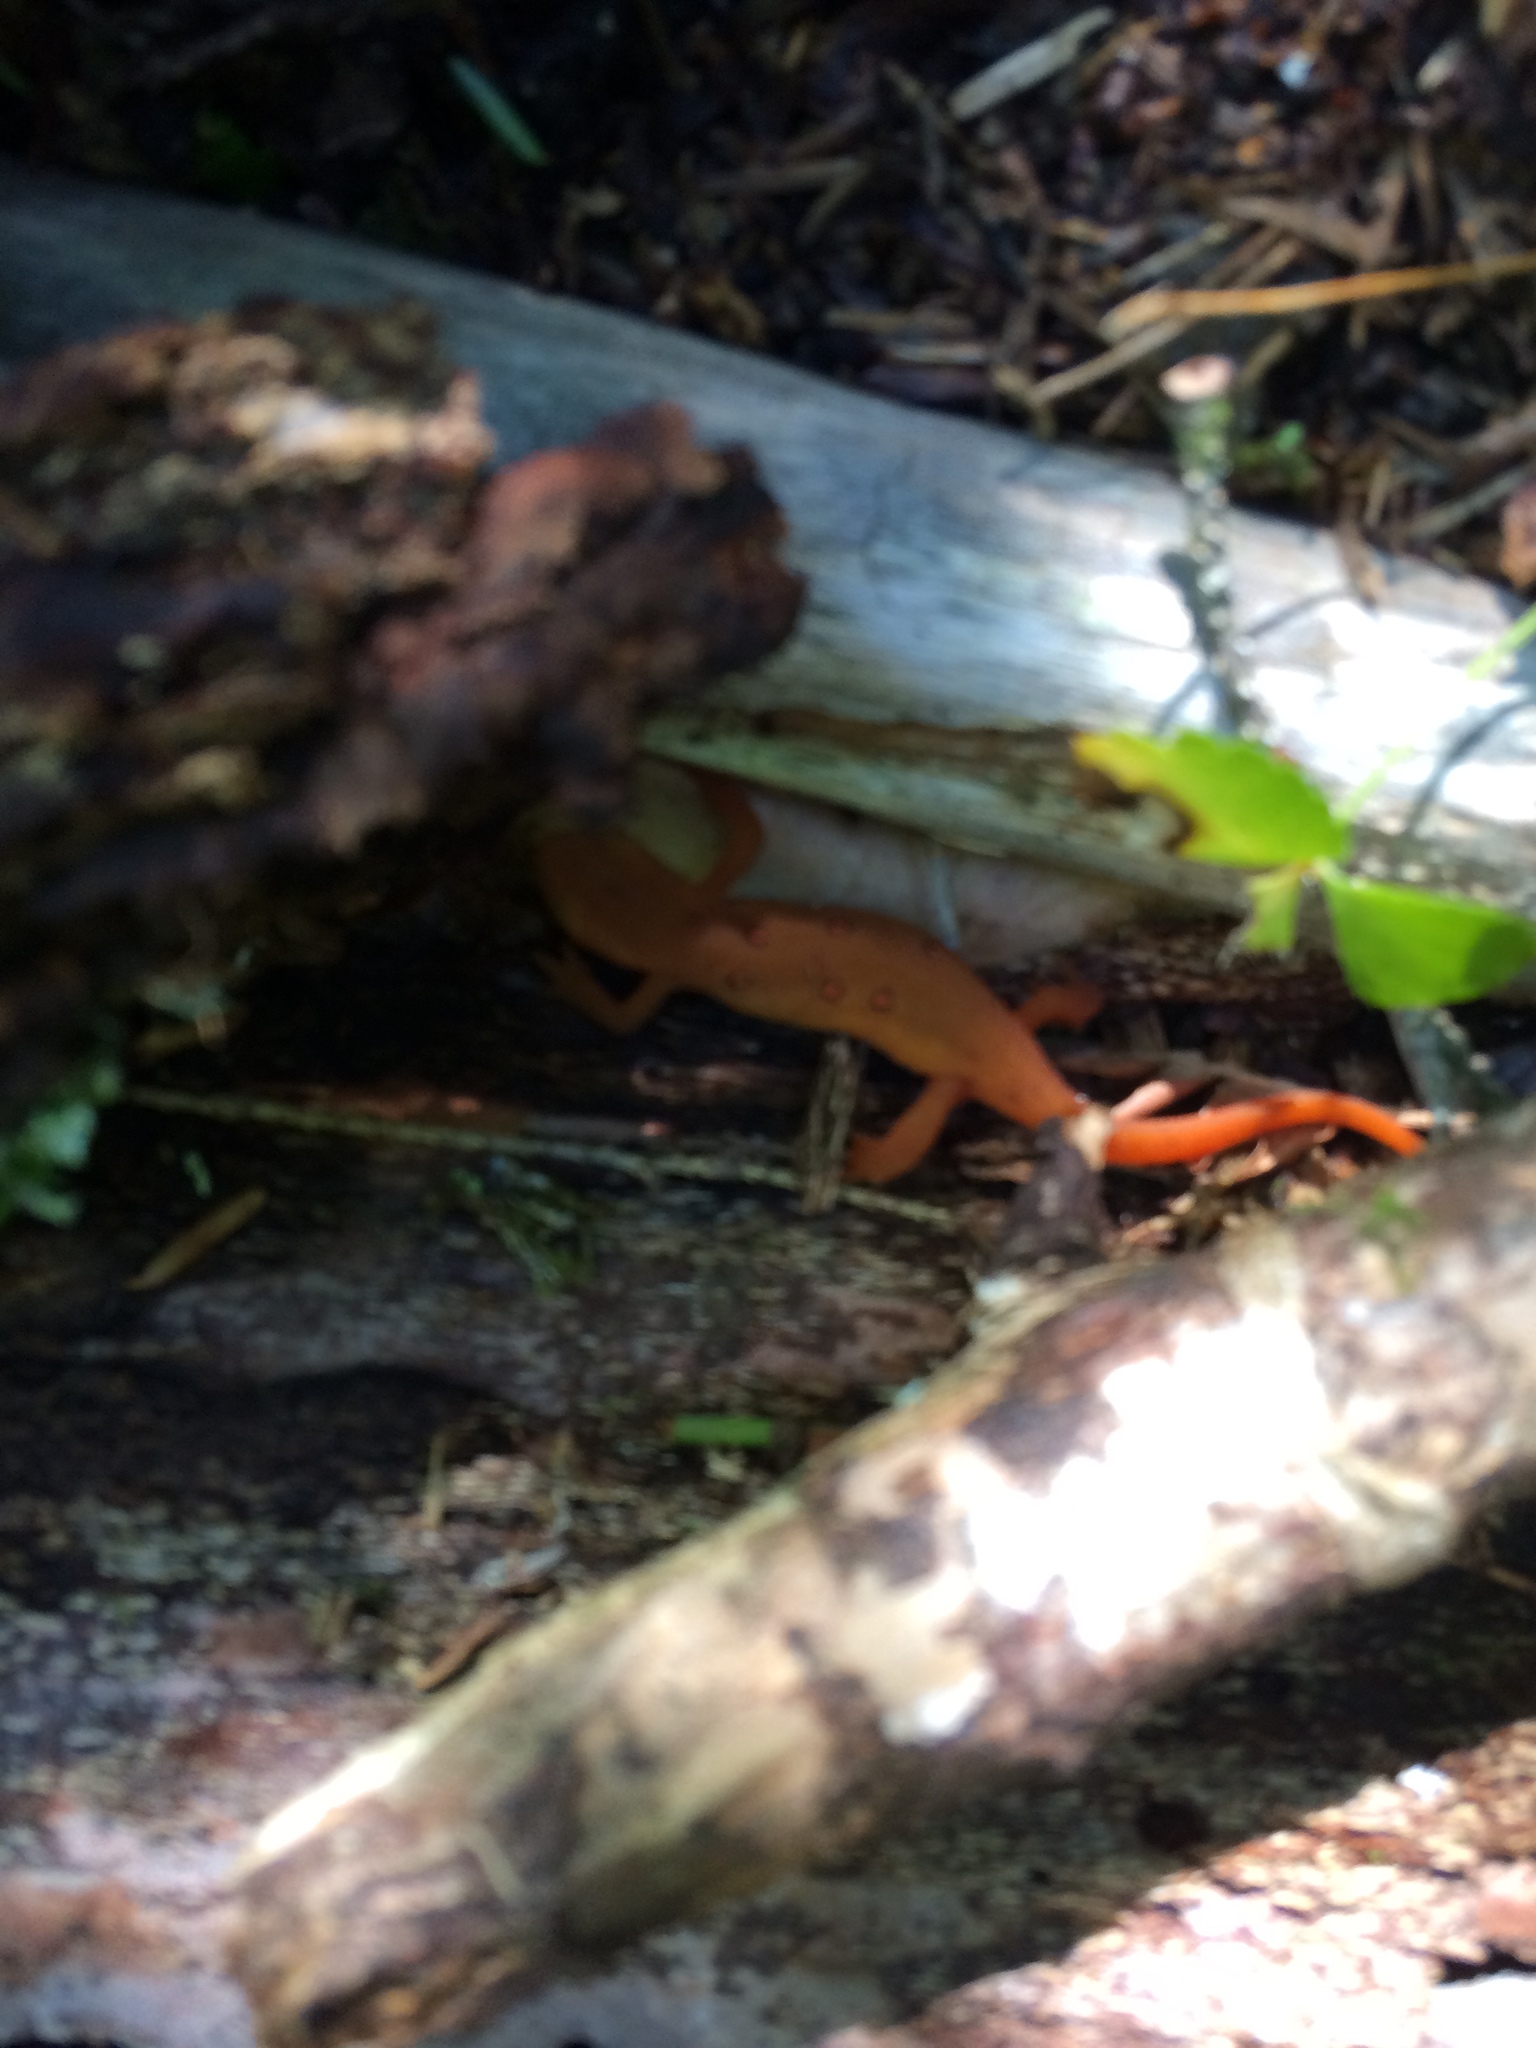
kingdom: Animalia
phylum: Chordata
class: Amphibia
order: Caudata
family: Salamandridae
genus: Notophthalmus
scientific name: Notophthalmus viridescens
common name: Eastern newt
